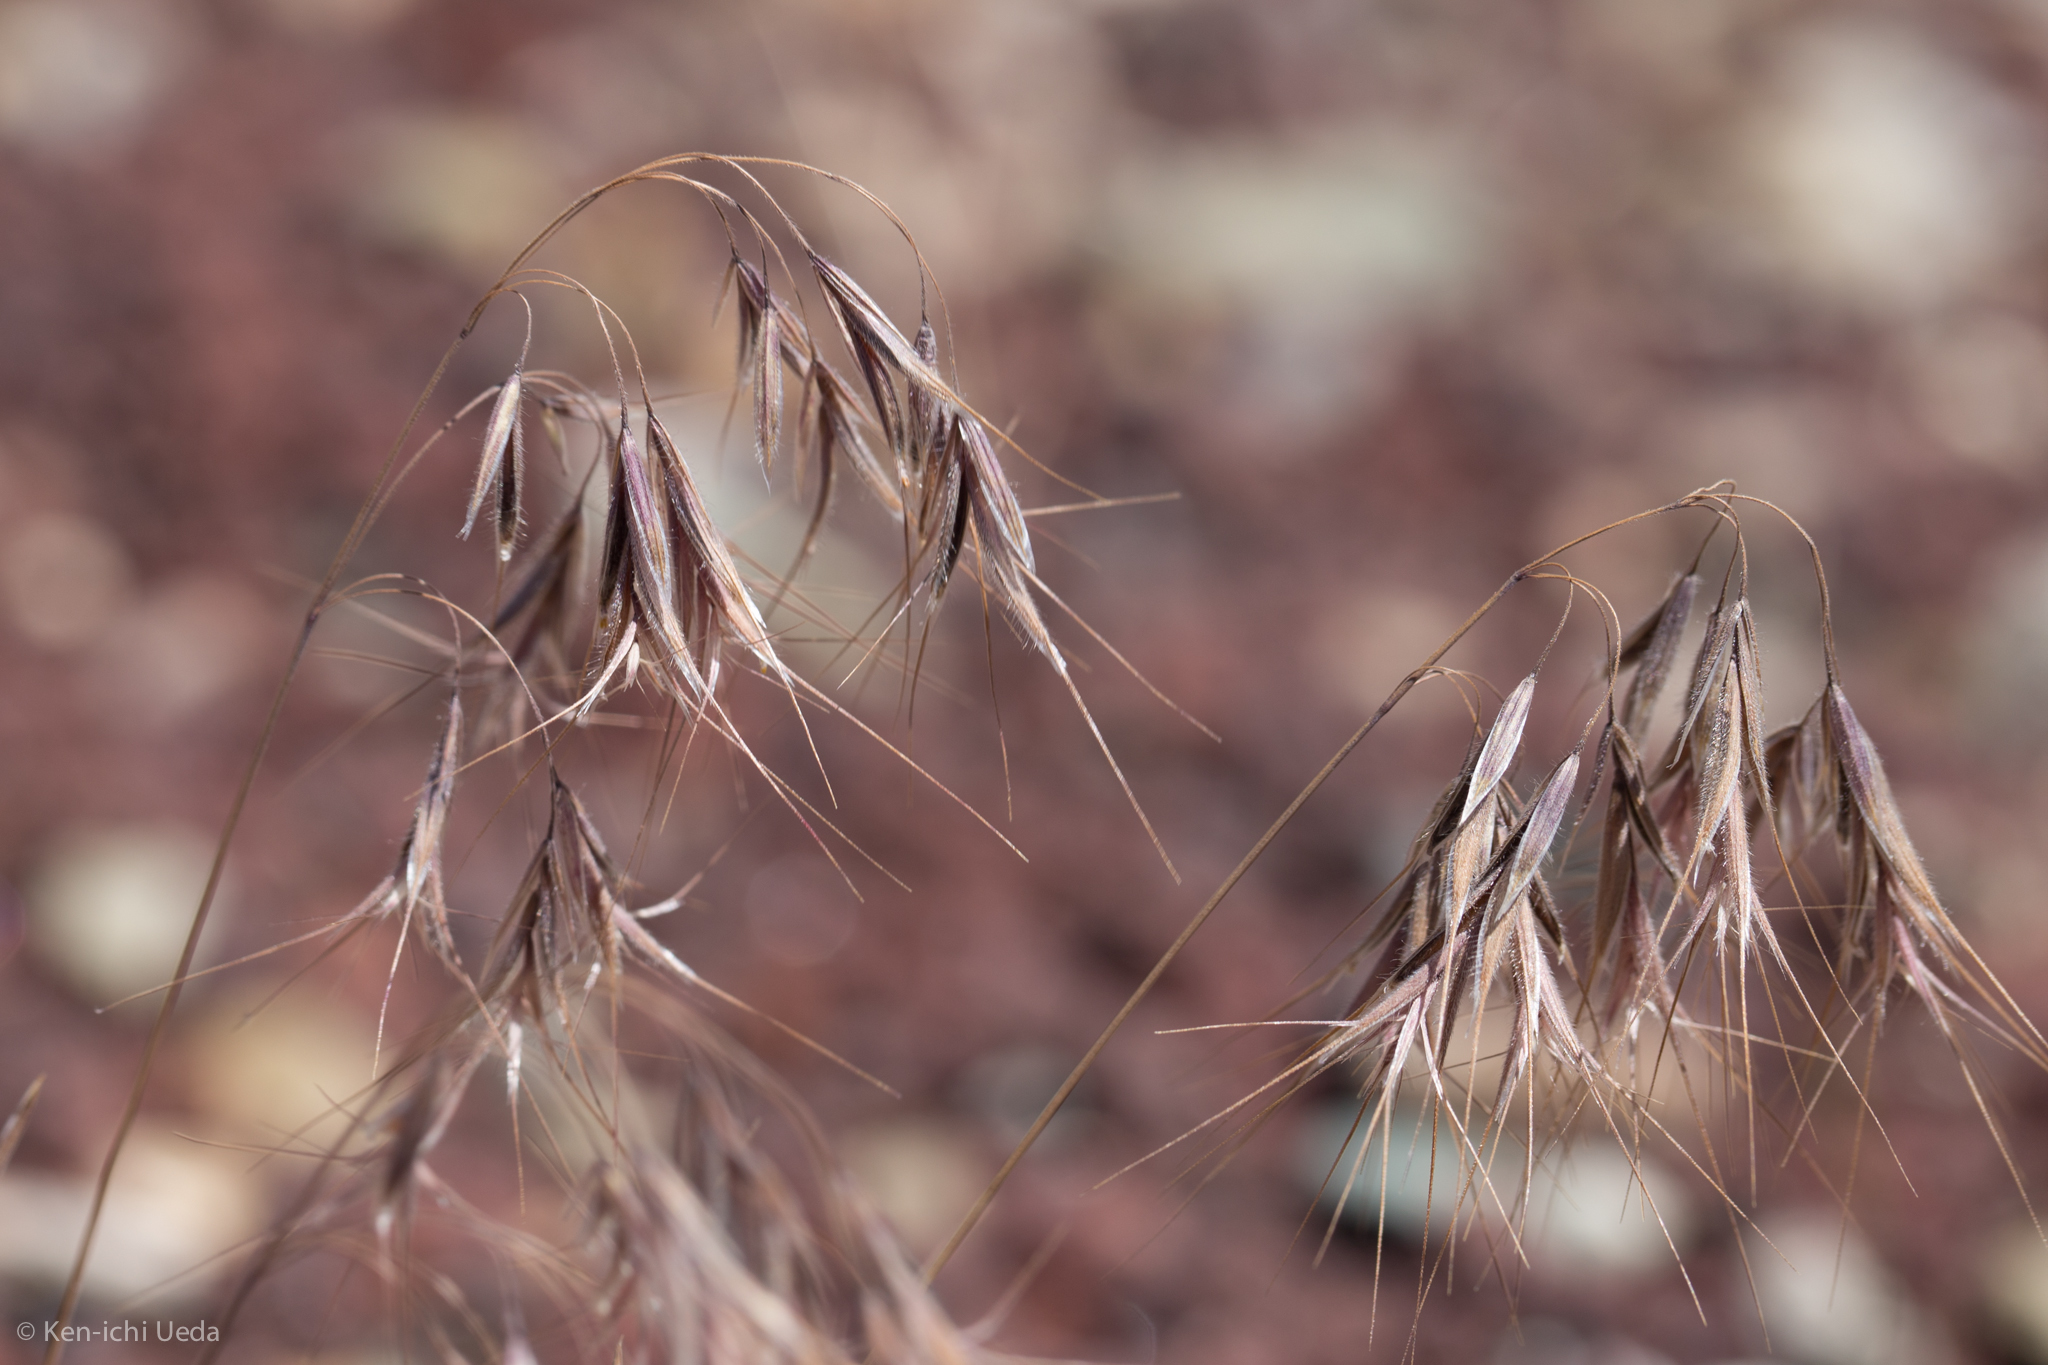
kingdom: Plantae
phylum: Tracheophyta
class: Liliopsida
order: Poales
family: Poaceae
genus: Bromus
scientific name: Bromus tectorum
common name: Cheatgrass
